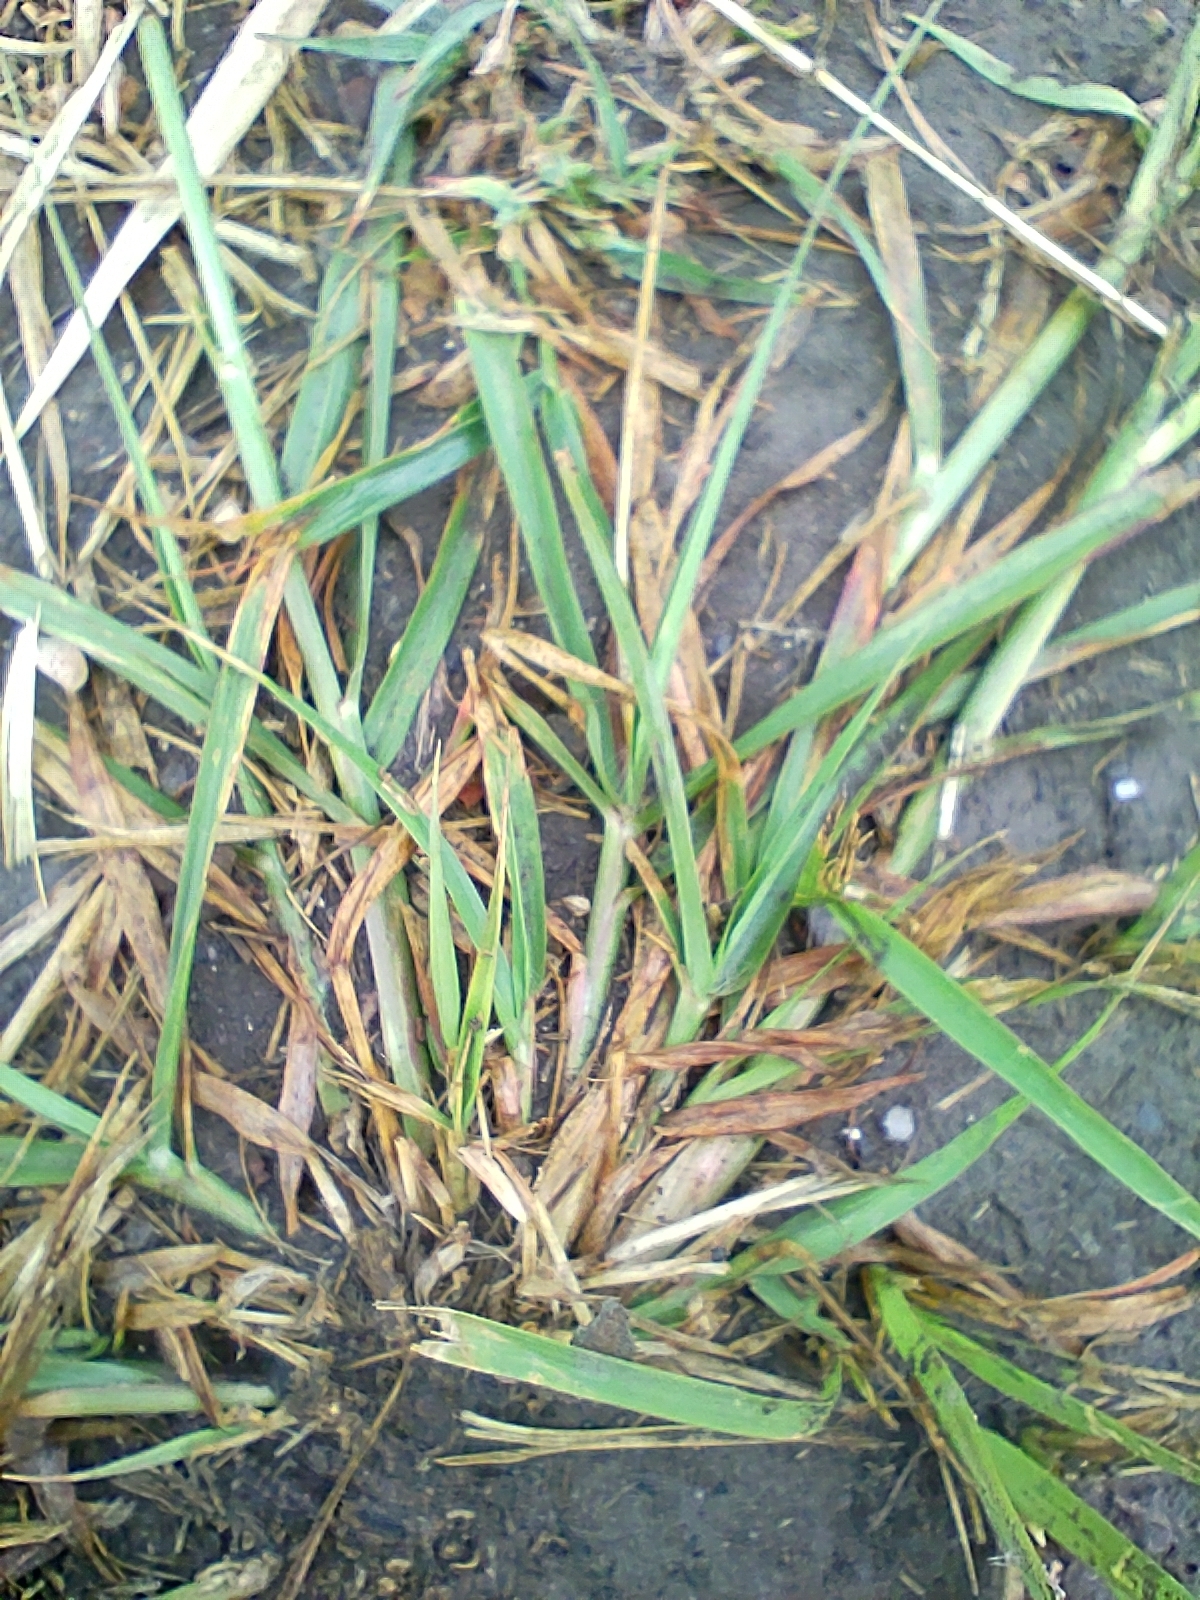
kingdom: Plantae
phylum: Tracheophyta
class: Liliopsida
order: Poales
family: Poaceae
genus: Eleusine
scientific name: Eleusine indica
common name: Yard-grass
